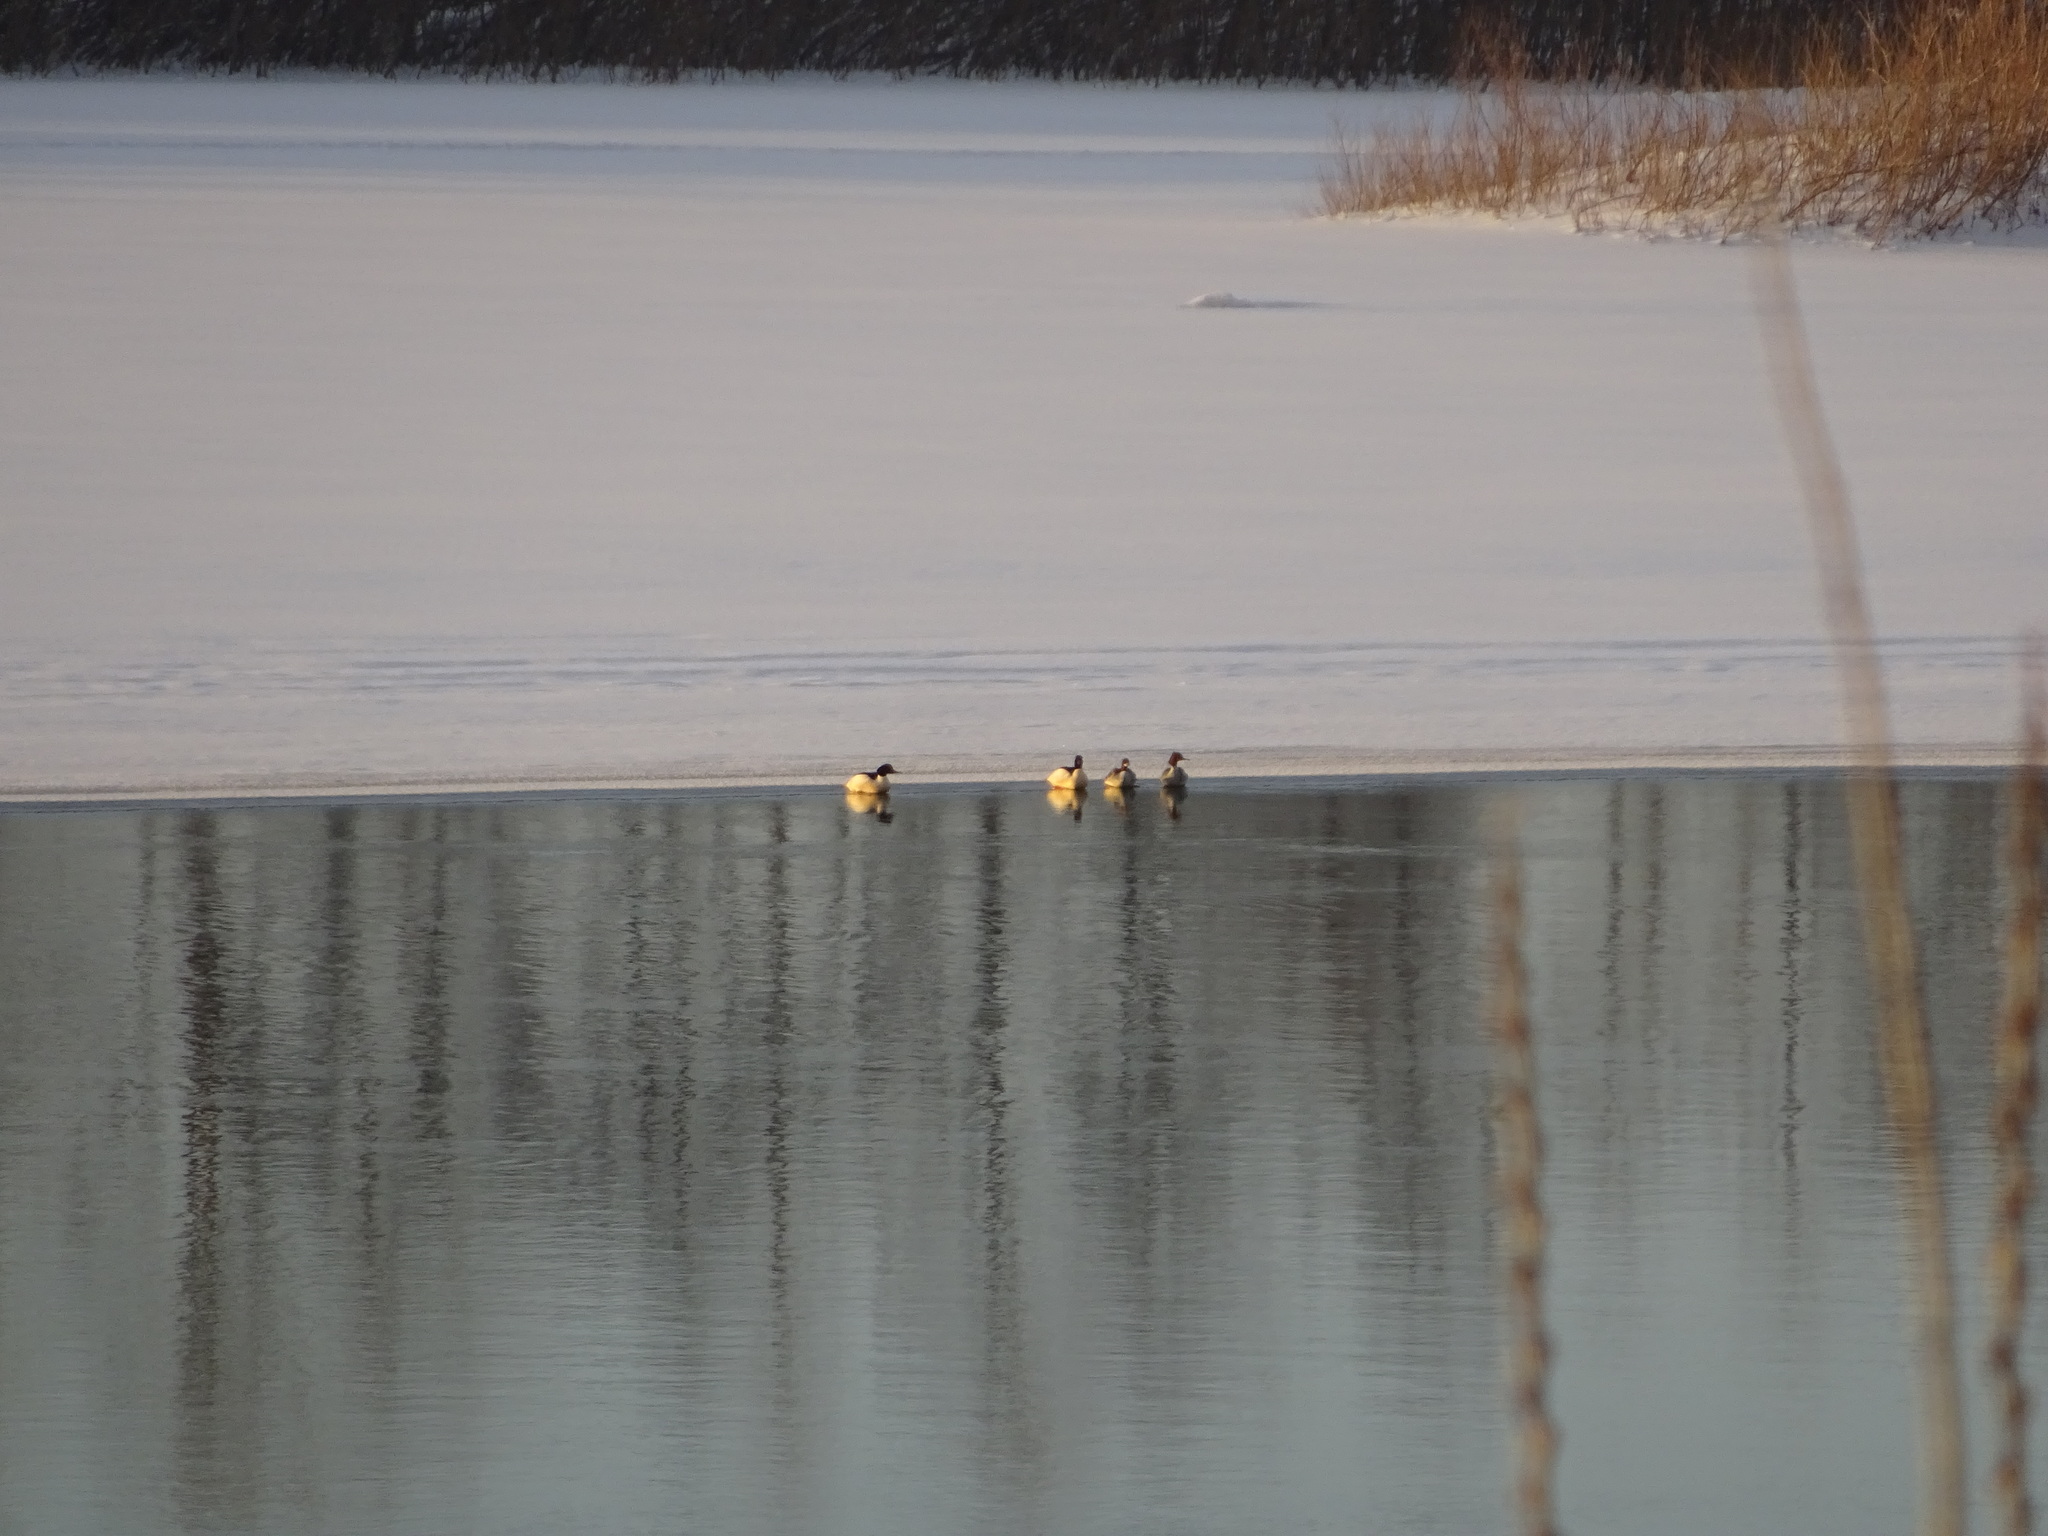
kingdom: Animalia
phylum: Chordata
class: Aves
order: Anseriformes
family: Anatidae
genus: Mergus
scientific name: Mergus merganser
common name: Common merganser
